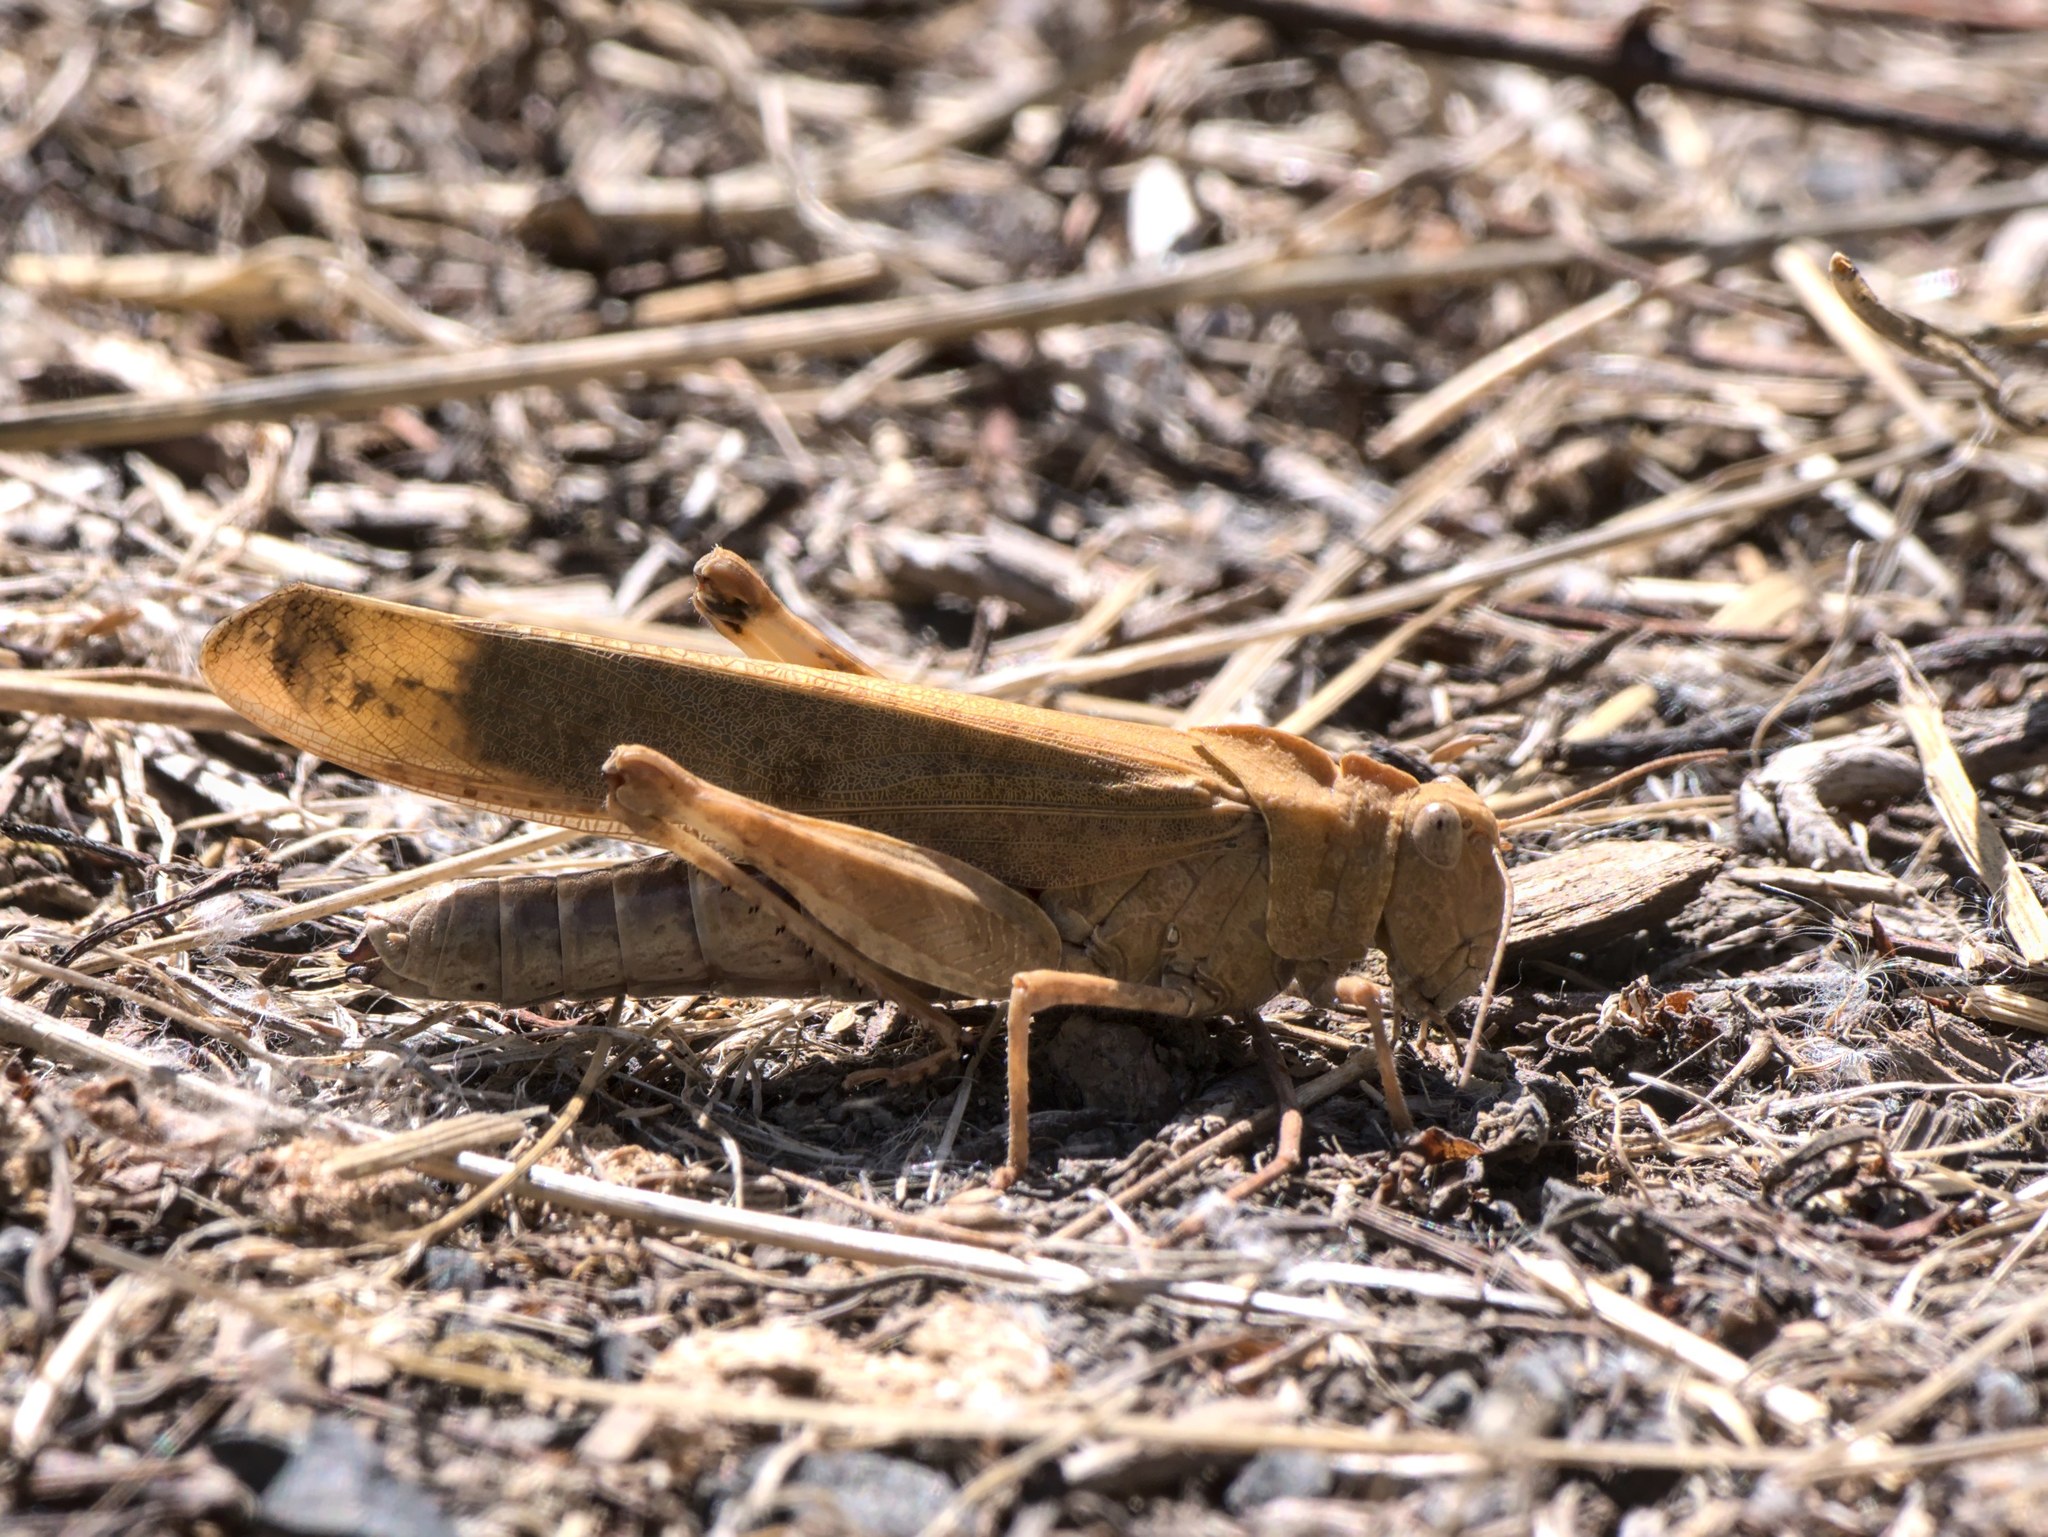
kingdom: Animalia
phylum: Arthropoda
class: Insecta
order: Orthoptera
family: Acrididae
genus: Dissosteira
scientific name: Dissosteira carolina
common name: Carolina grasshopper
